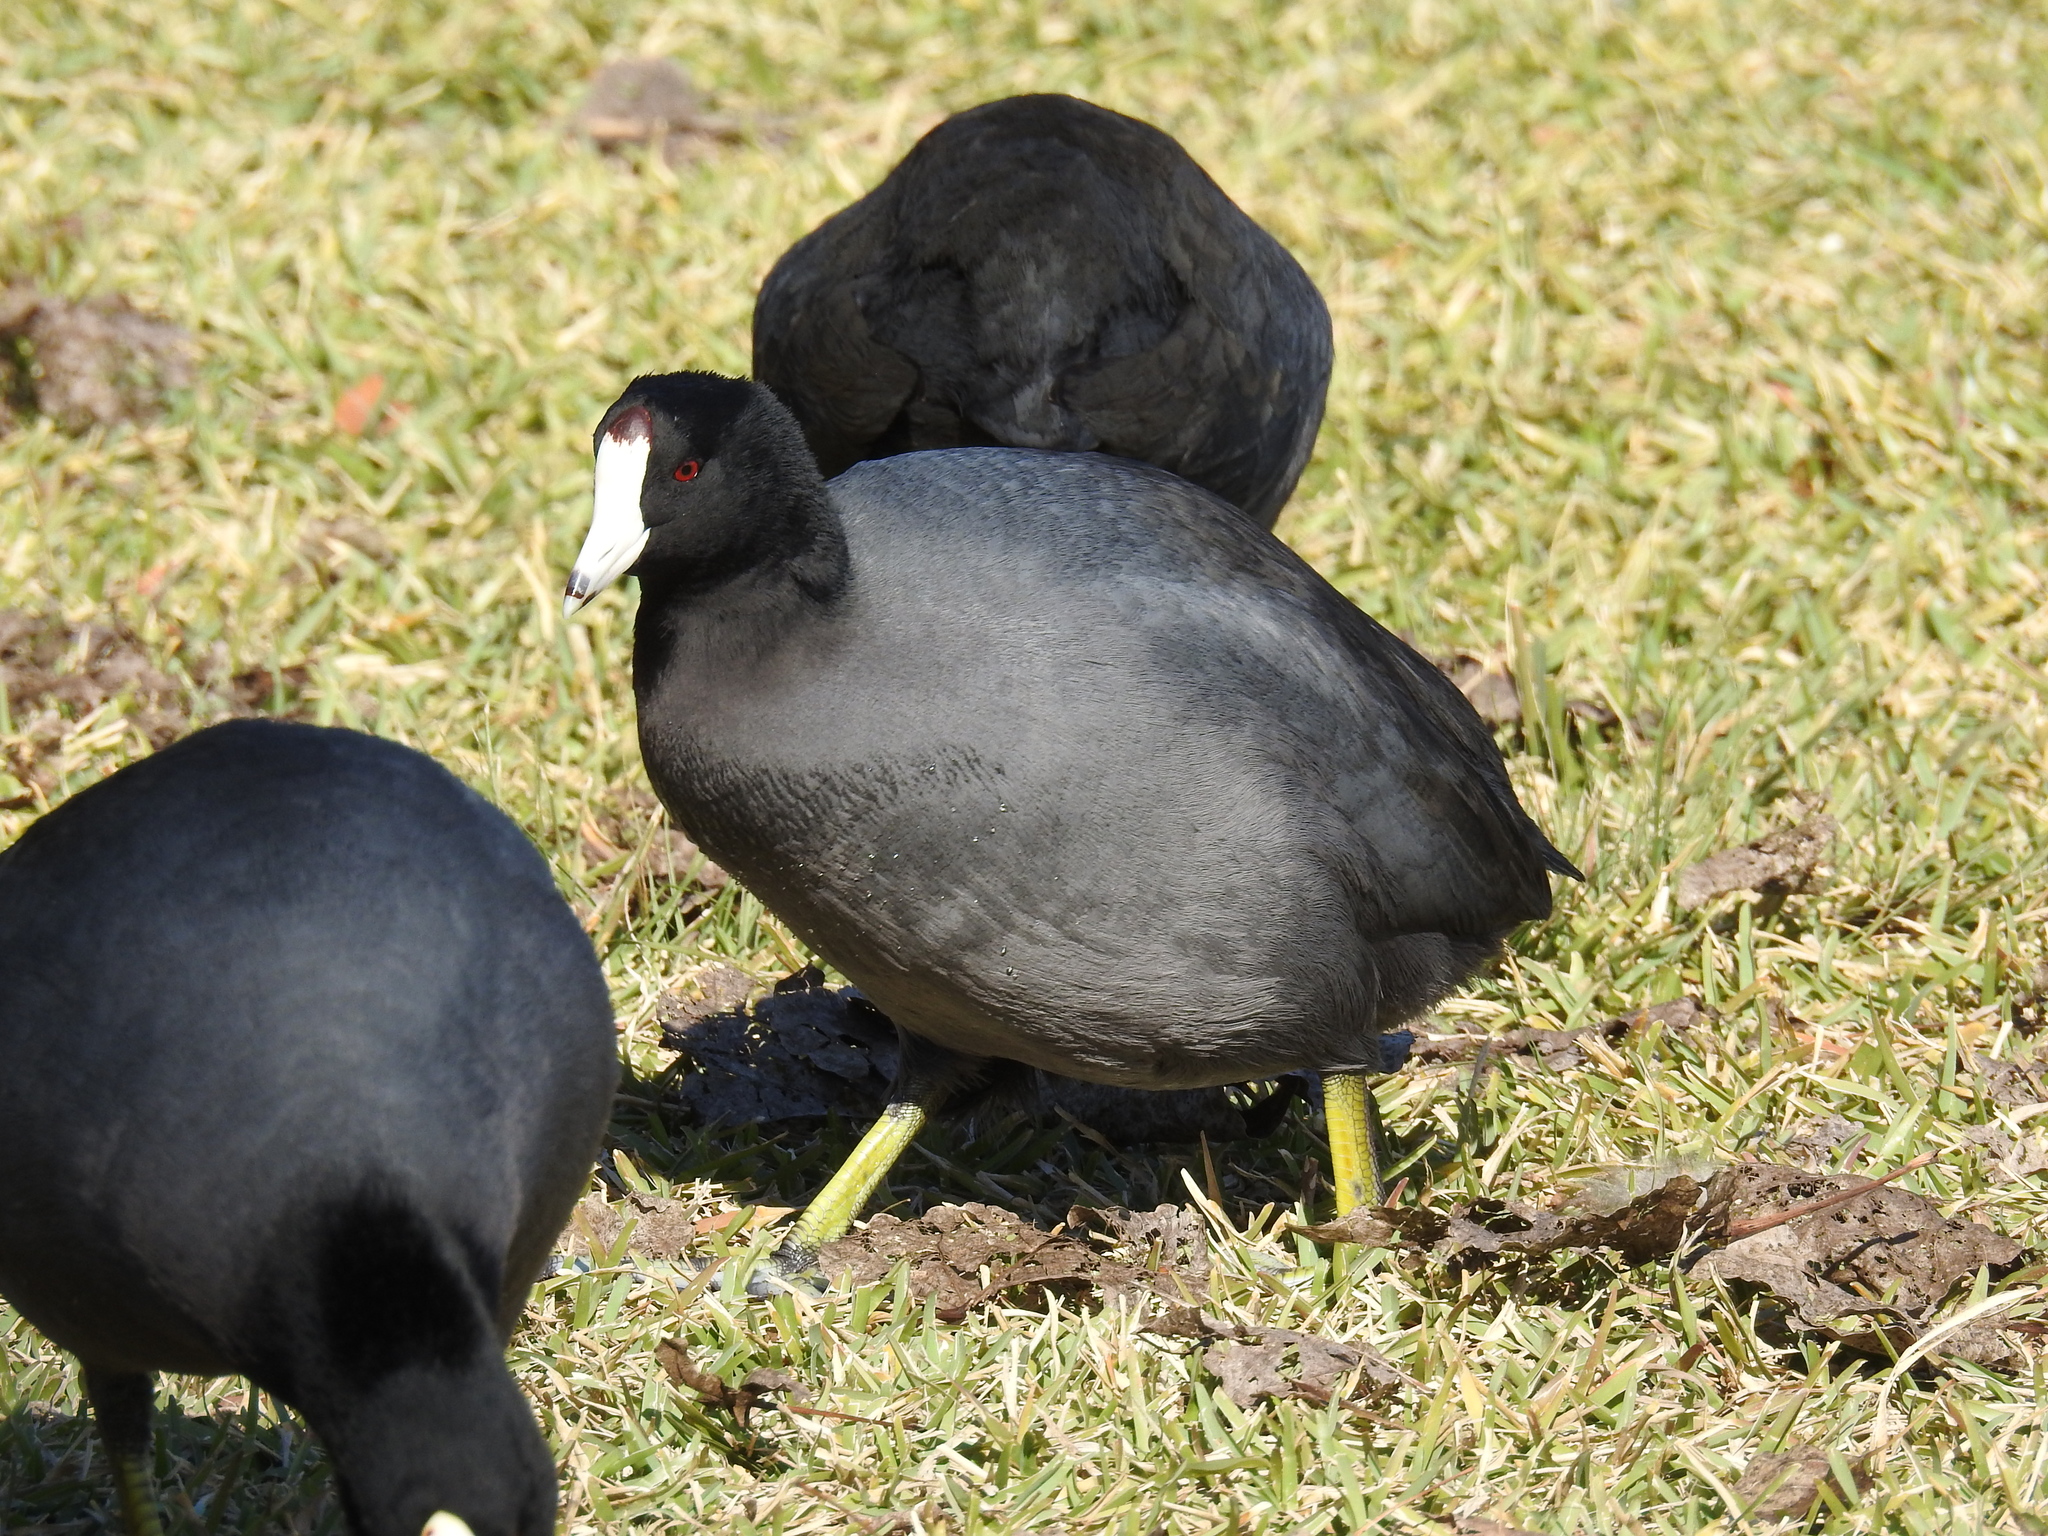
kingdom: Animalia
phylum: Chordata
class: Aves
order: Gruiformes
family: Rallidae
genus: Fulica
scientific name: Fulica americana
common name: American coot
